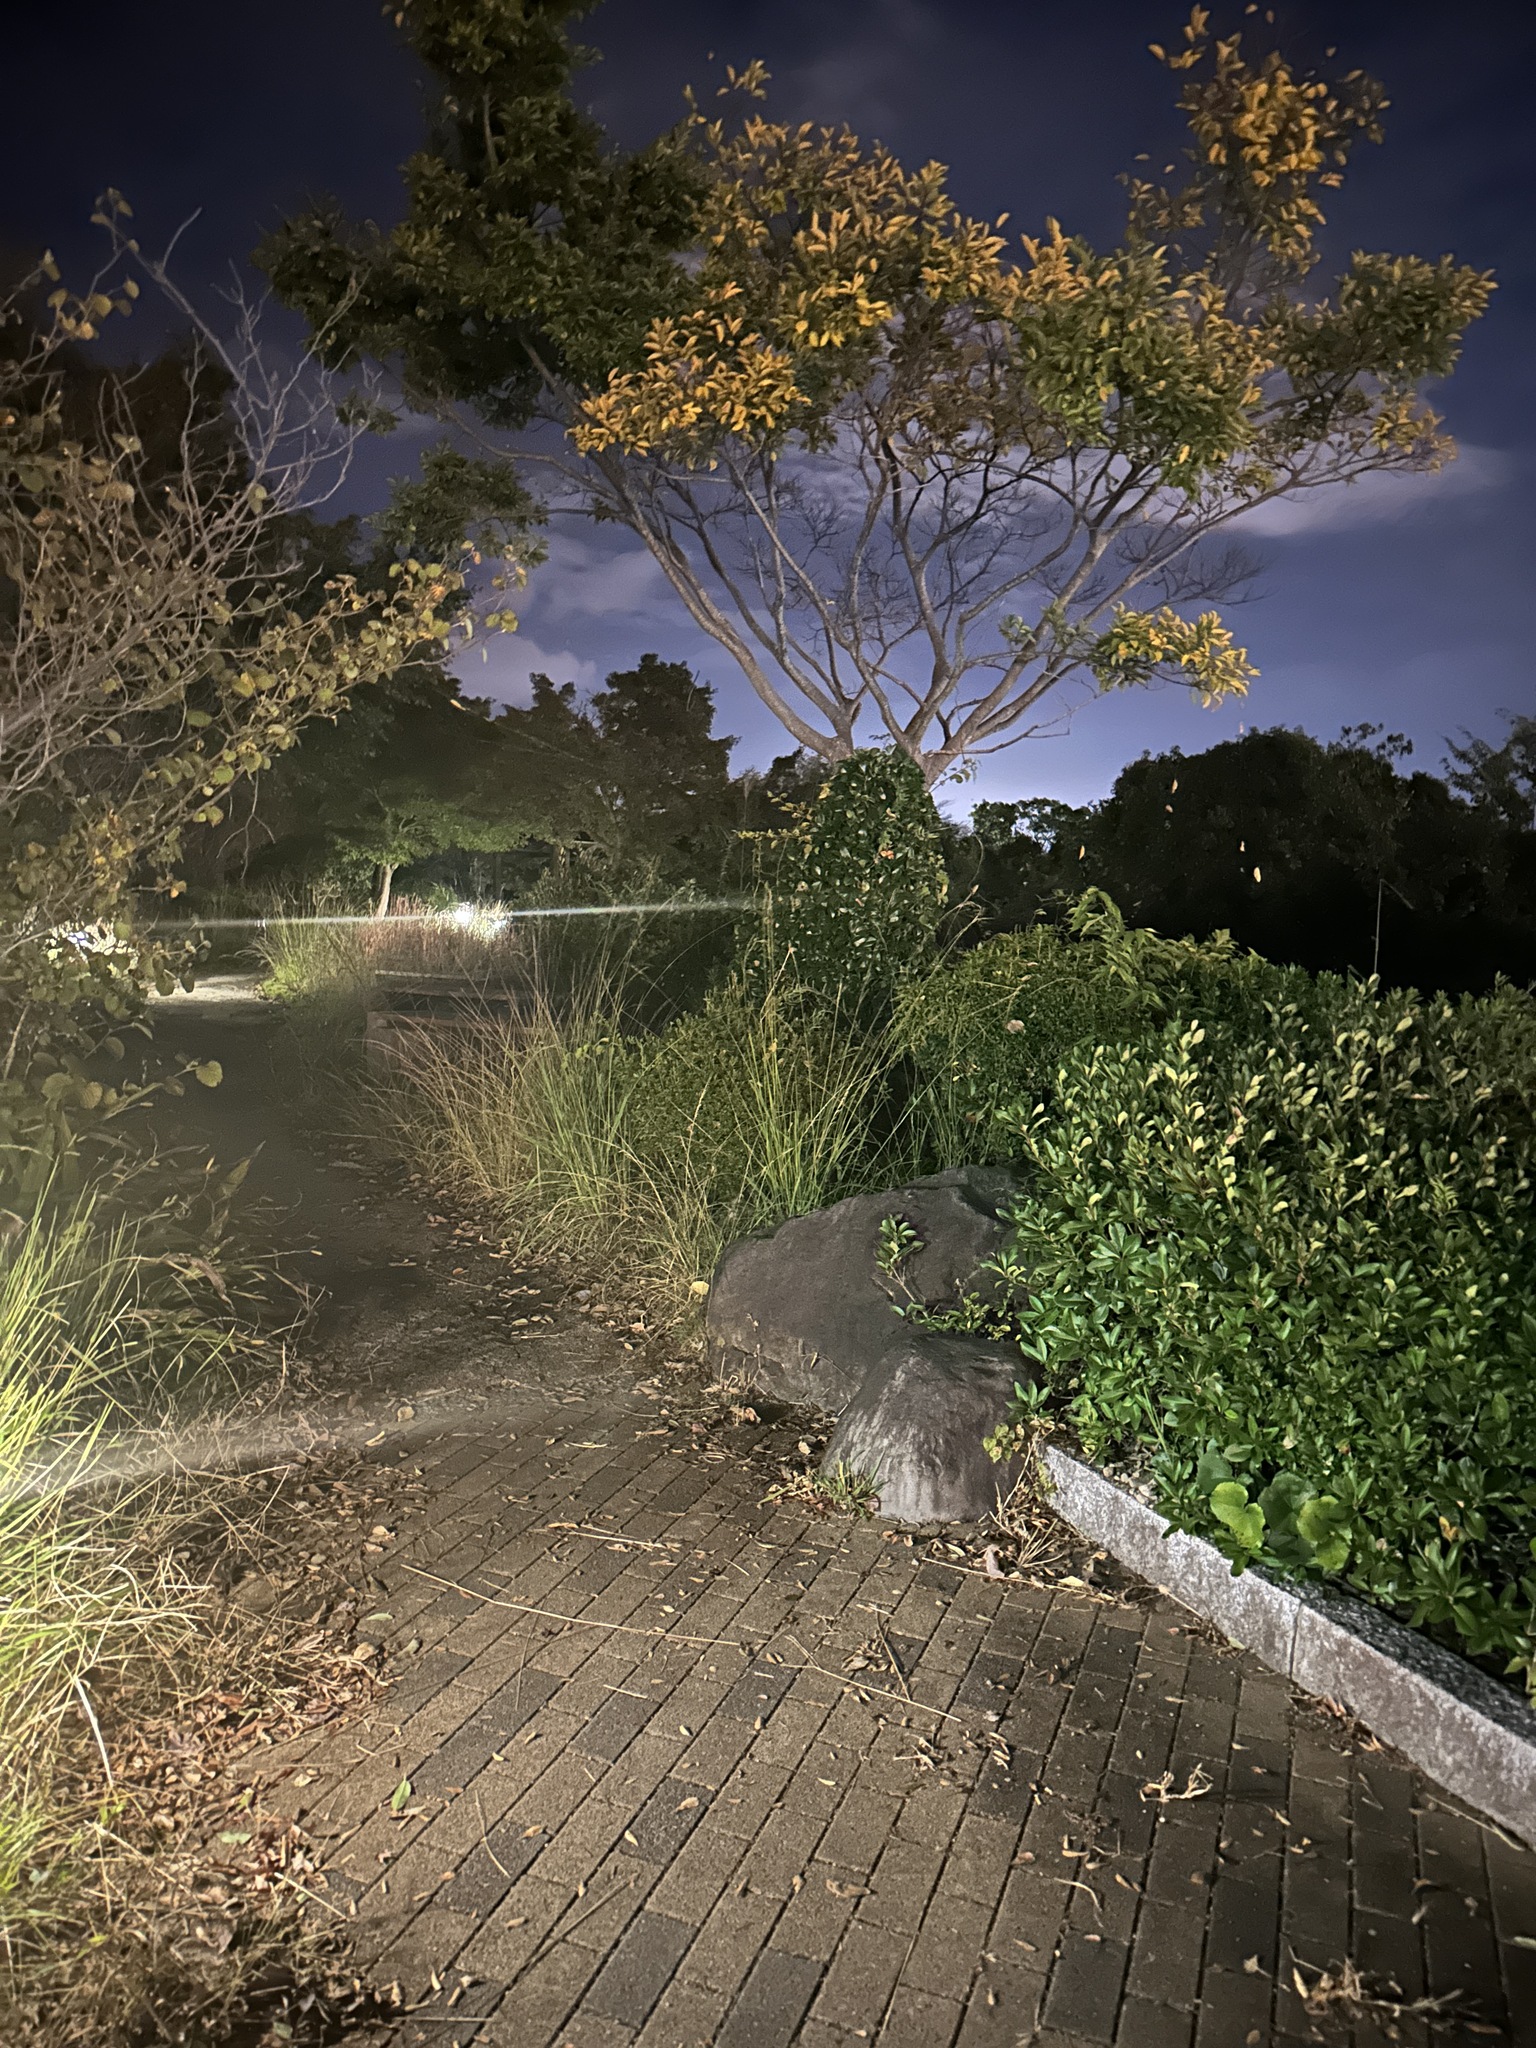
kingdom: Animalia
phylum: Arthropoda
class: Insecta
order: Orthoptera
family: Gryllidae
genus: Xenogryllus
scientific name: Xenogryllus marmoratus
